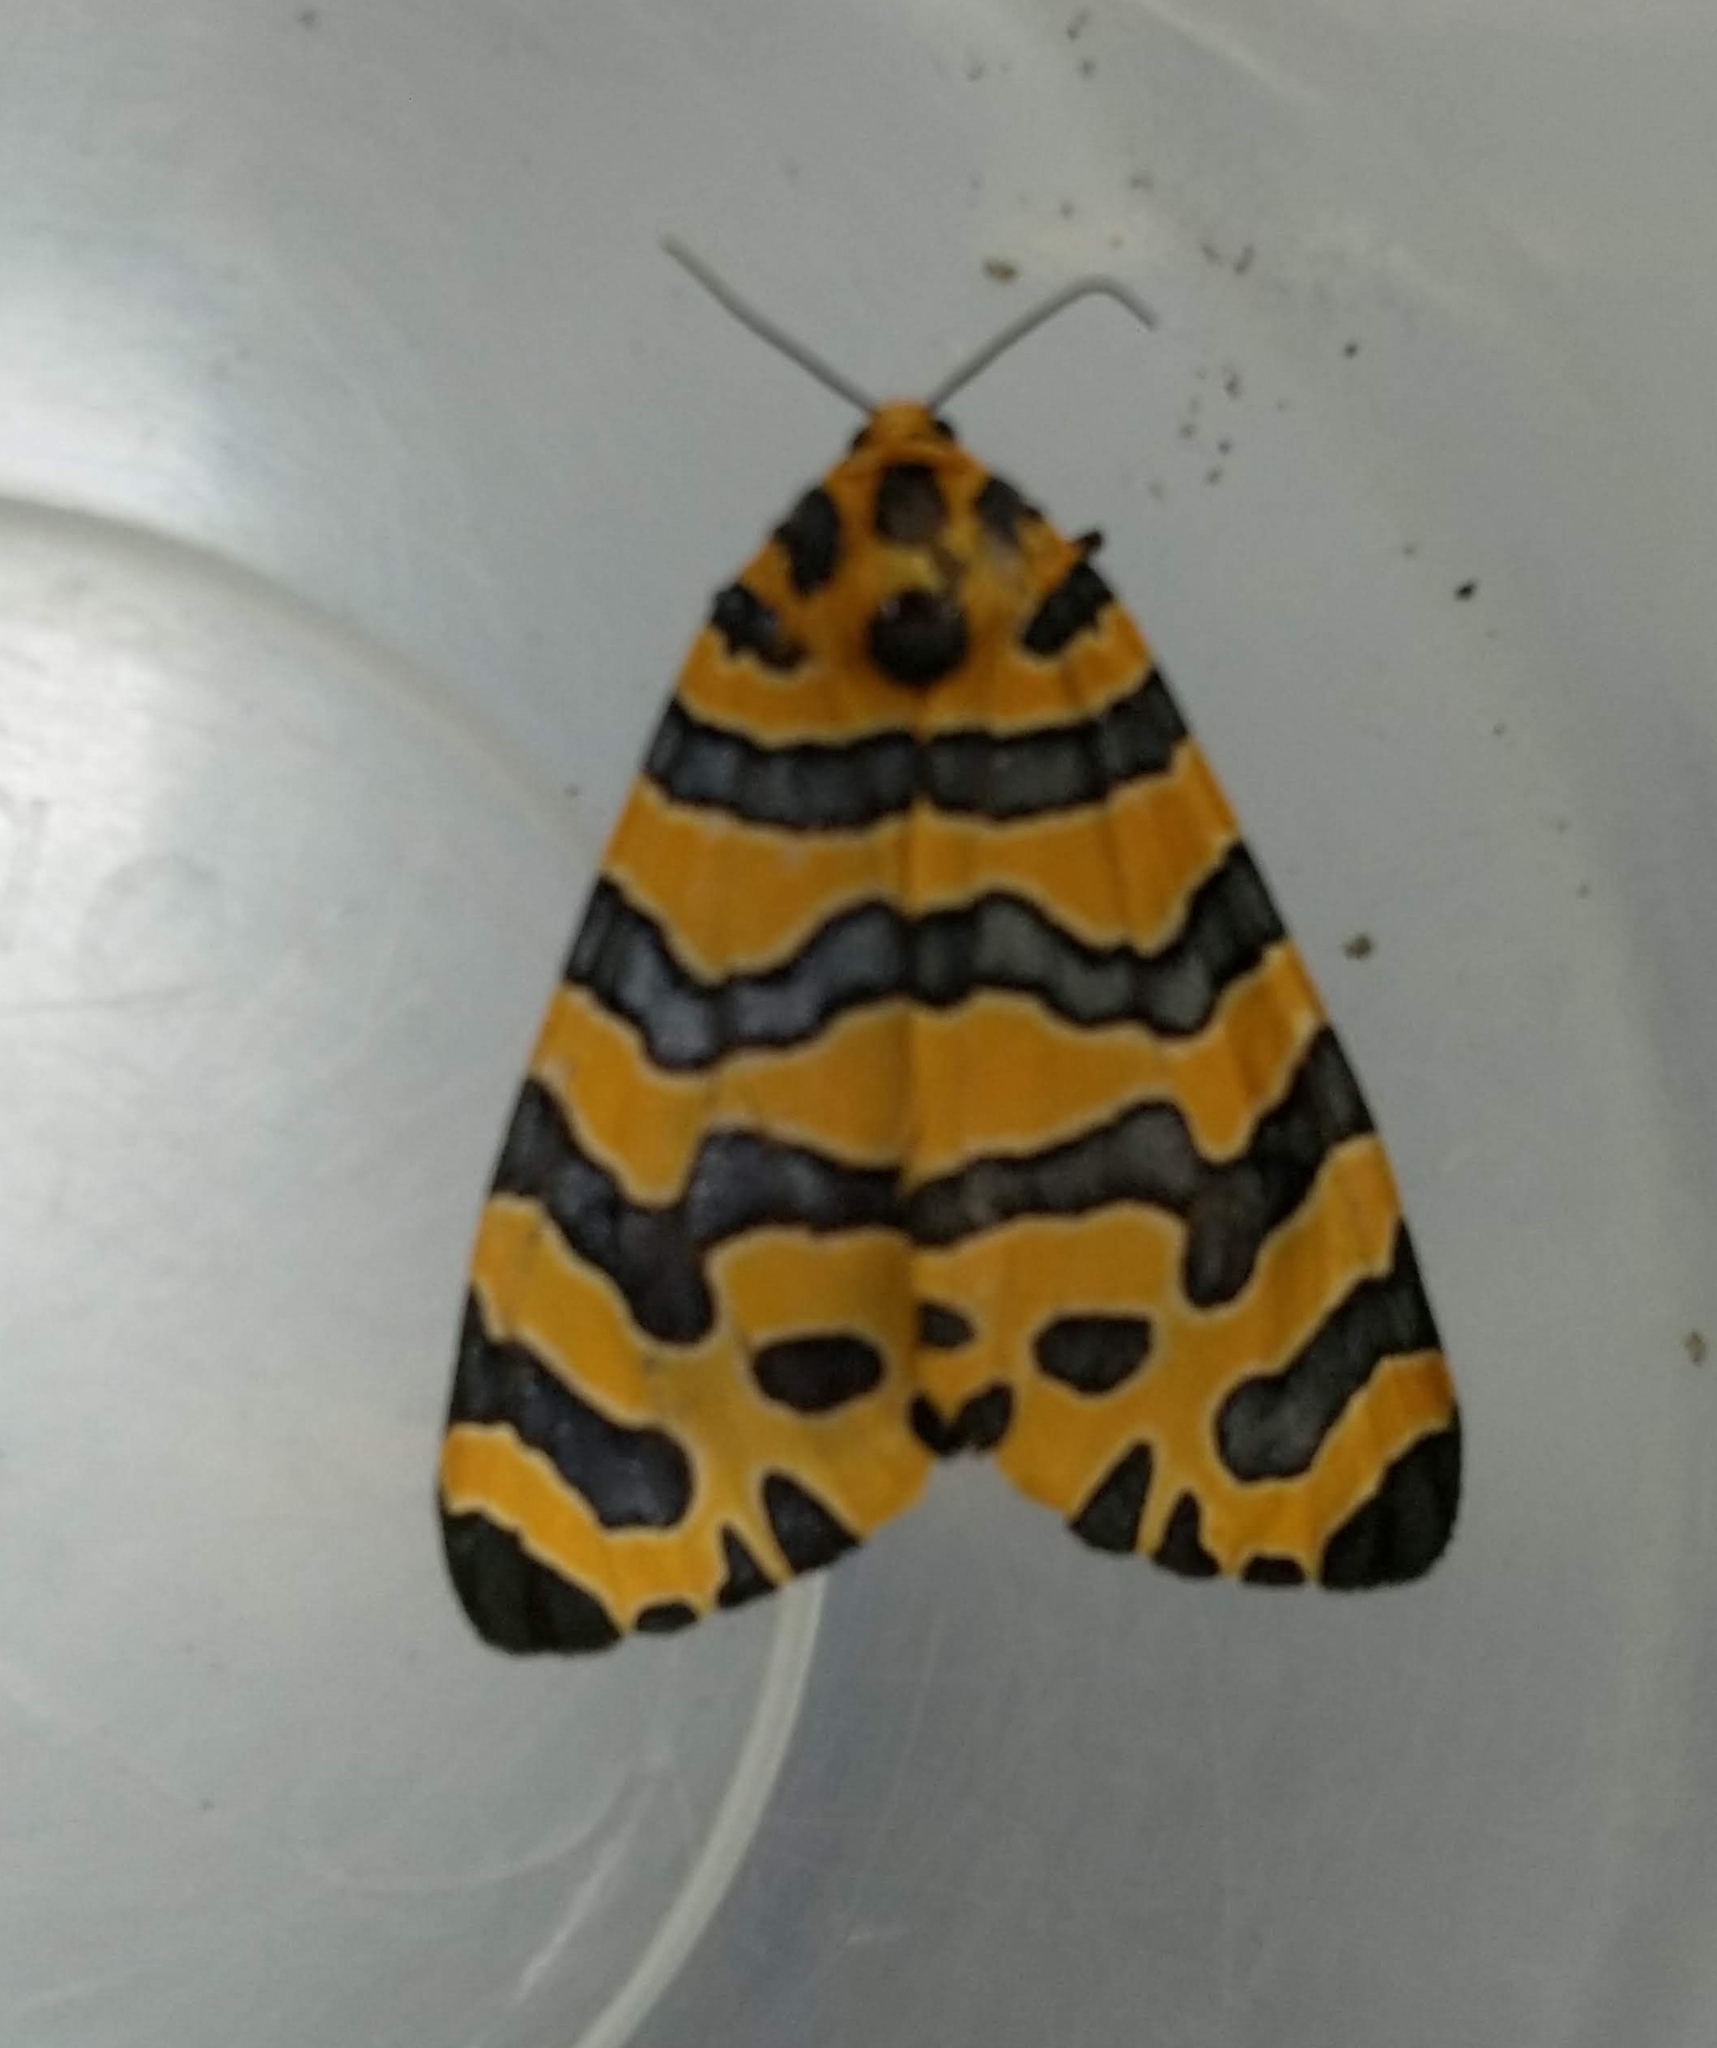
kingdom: Animalia
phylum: Arthropoda
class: Insecta
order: Lepidoptera
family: Erebidae
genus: Amphicallia
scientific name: Amphicallia bellatrix
